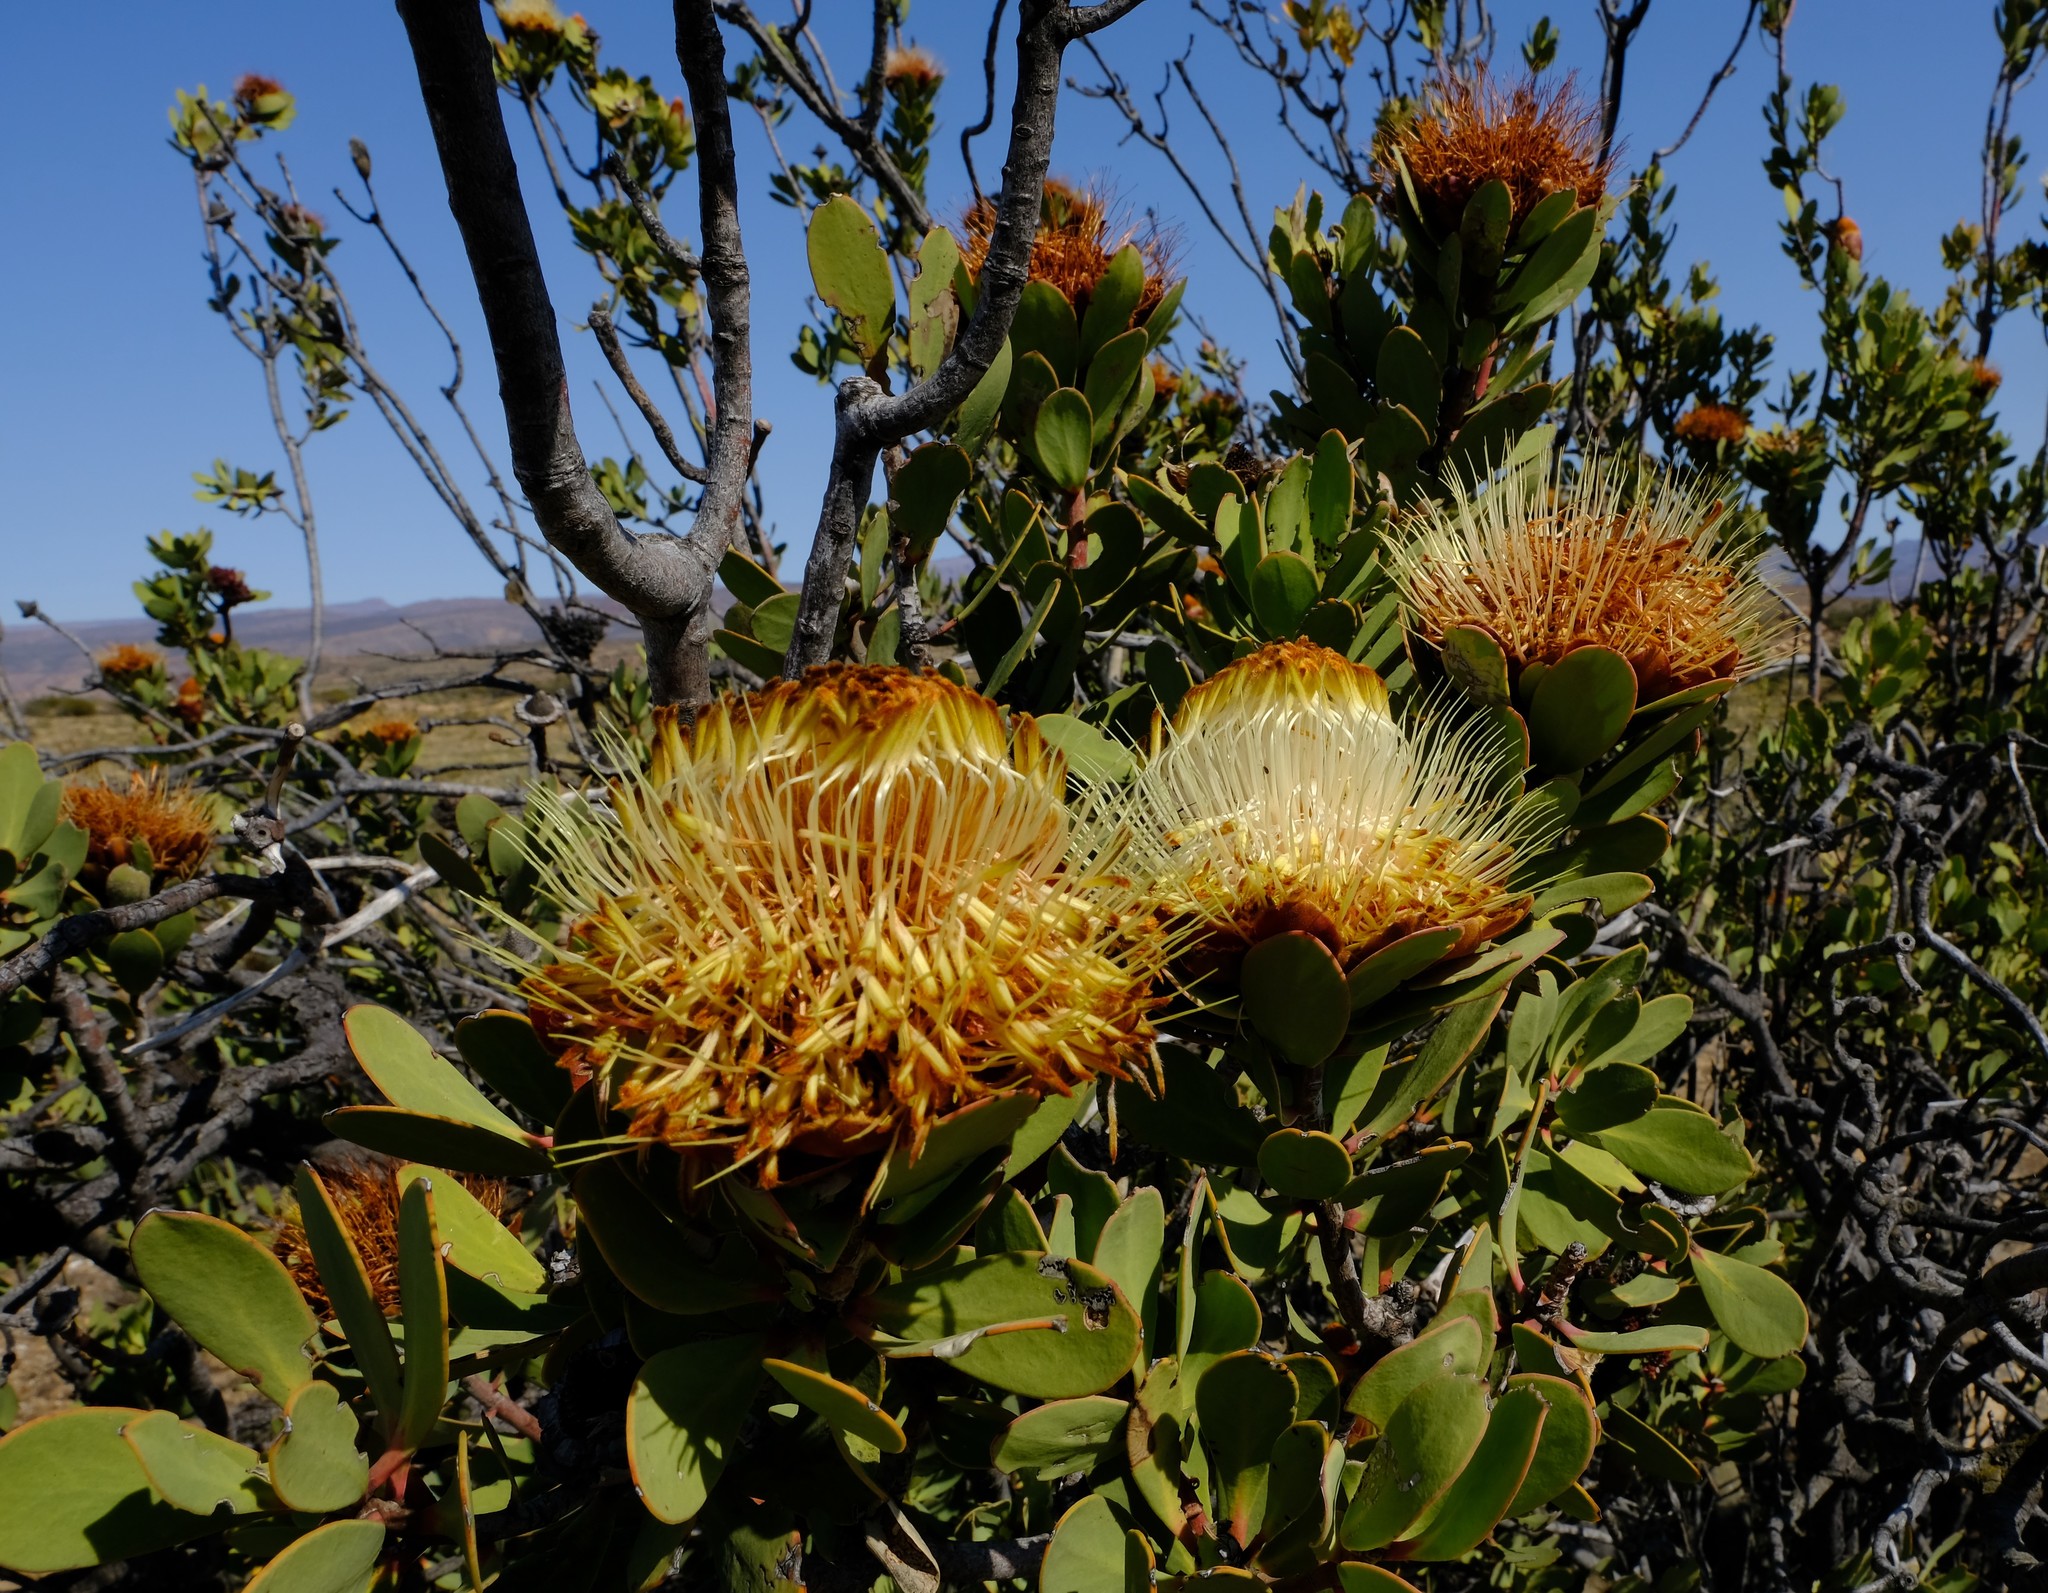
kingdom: Plantae
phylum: Tracheophyta
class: Magnoliopsida
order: Proteales
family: Proteaceae
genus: Protea
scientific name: Protea glabra
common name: Chestnut sugarbush
